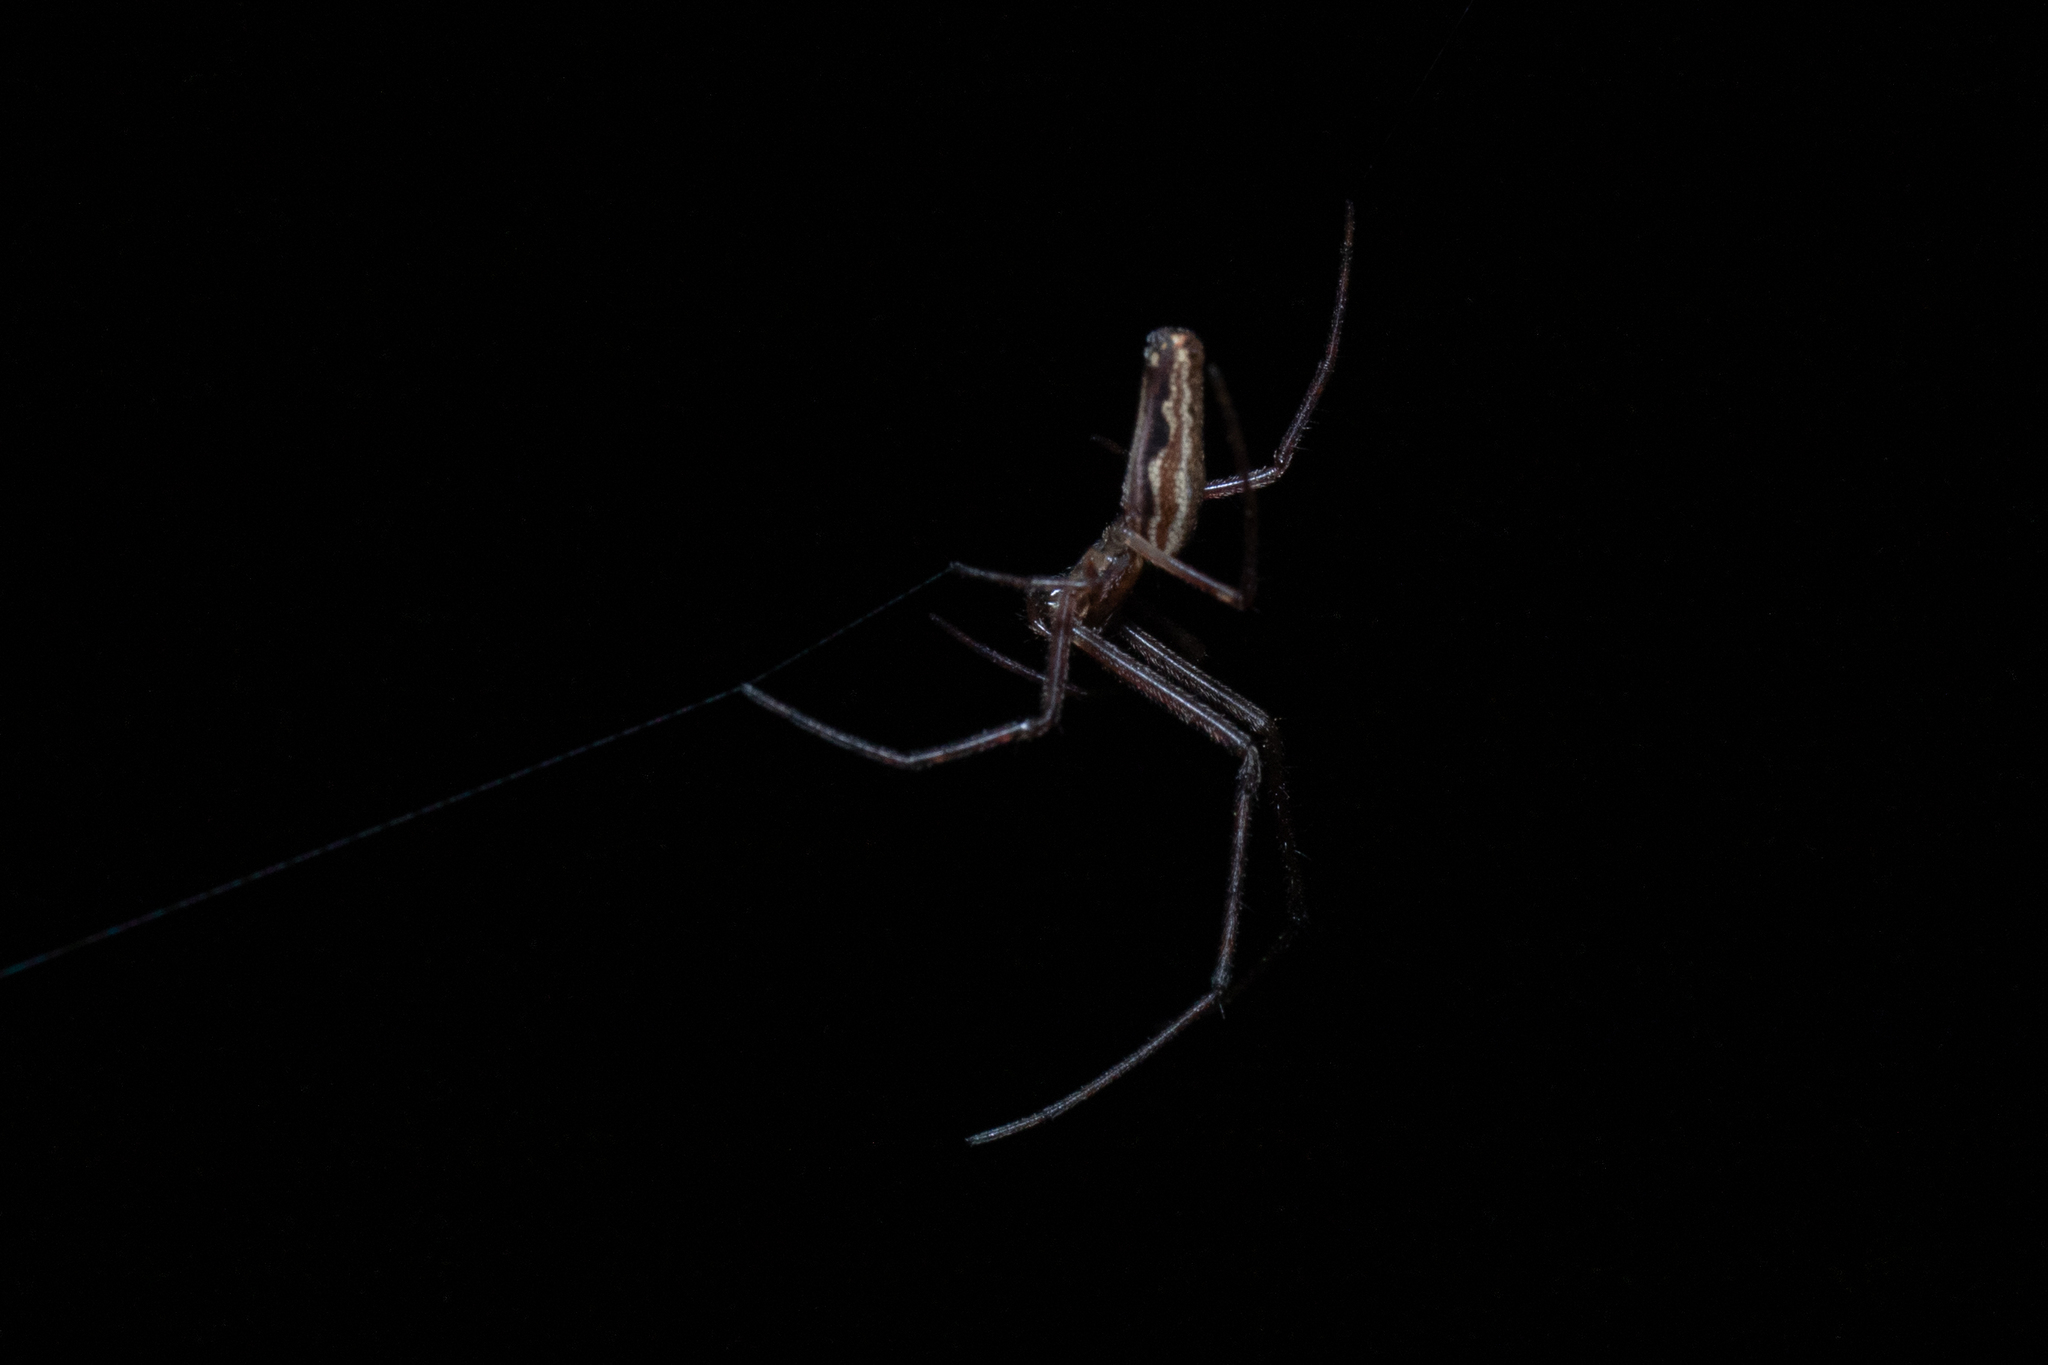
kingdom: Animalia
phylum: Arthropoda
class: Arachnida
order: Araneae
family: Tetragnathidae
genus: Tetragnatha
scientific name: Tetragnatha
